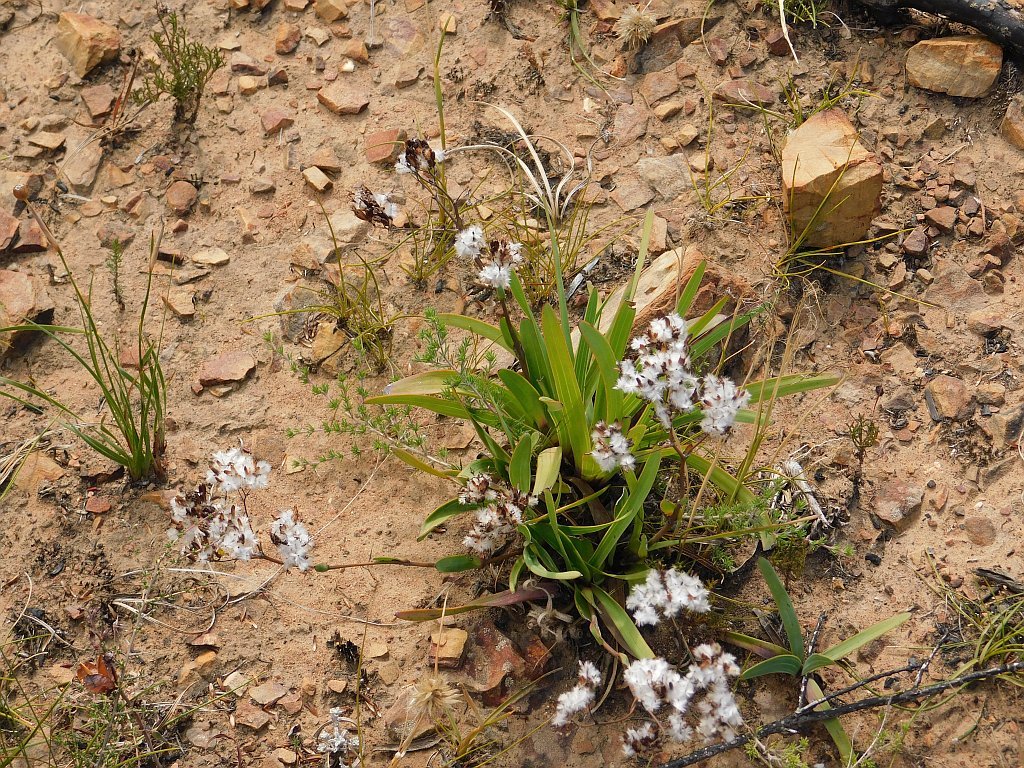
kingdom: Plantae
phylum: Tracheophyta
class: Magnoliopsida
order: Asterales
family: Asteraceae
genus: Corymbium
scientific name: Corymbium glabrum
